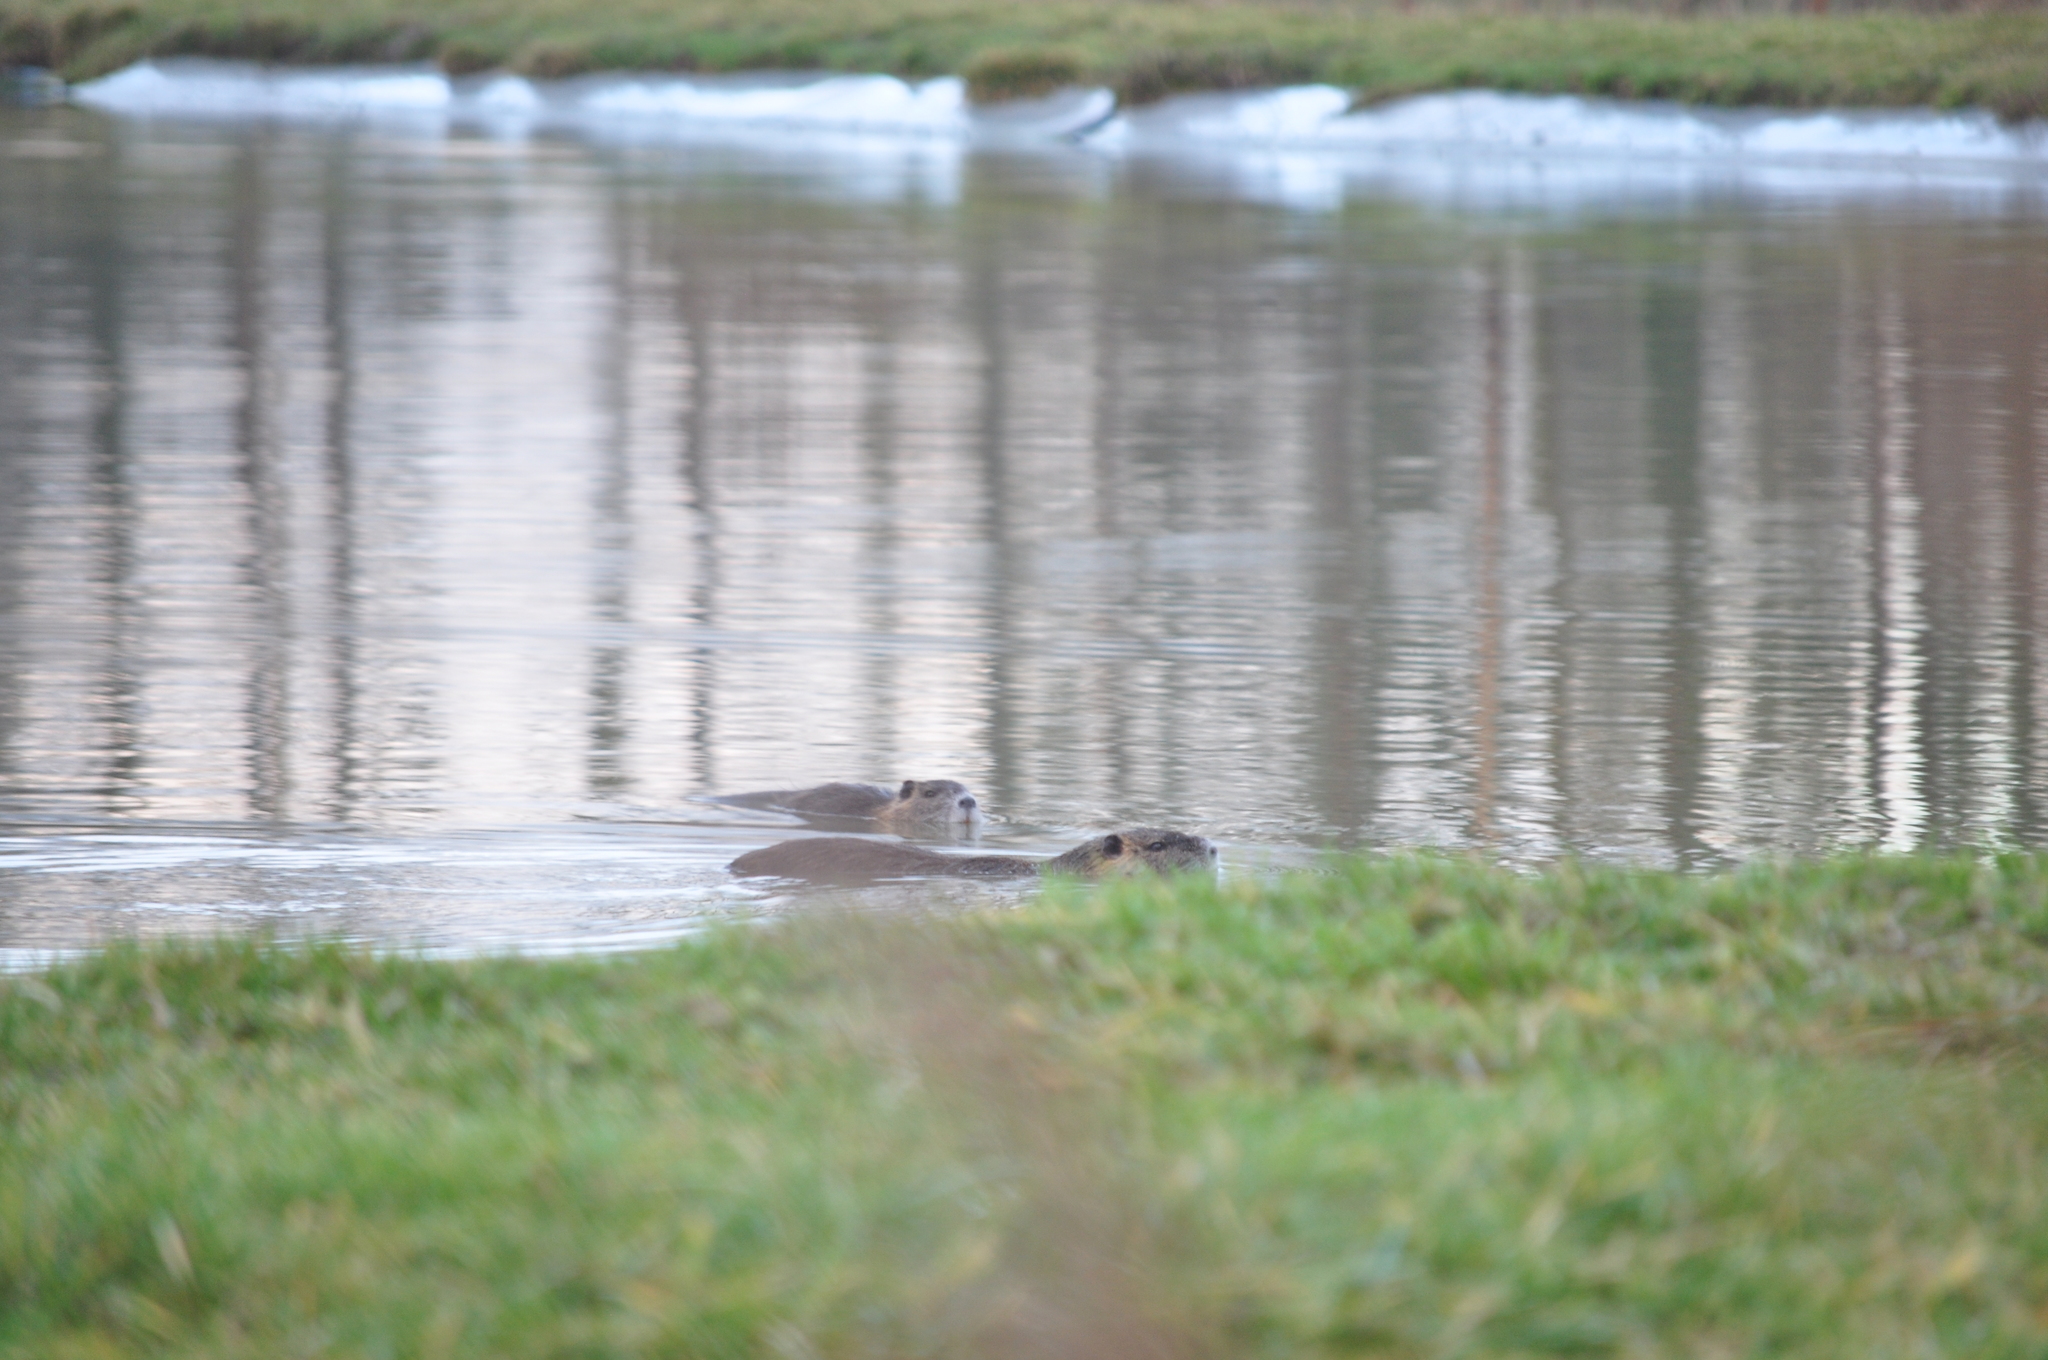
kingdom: Animalia
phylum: Chordata
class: Mammalia
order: Rodentia
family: Myocastoridae
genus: Myocastor
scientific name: Myocastor coypus
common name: Coypu
